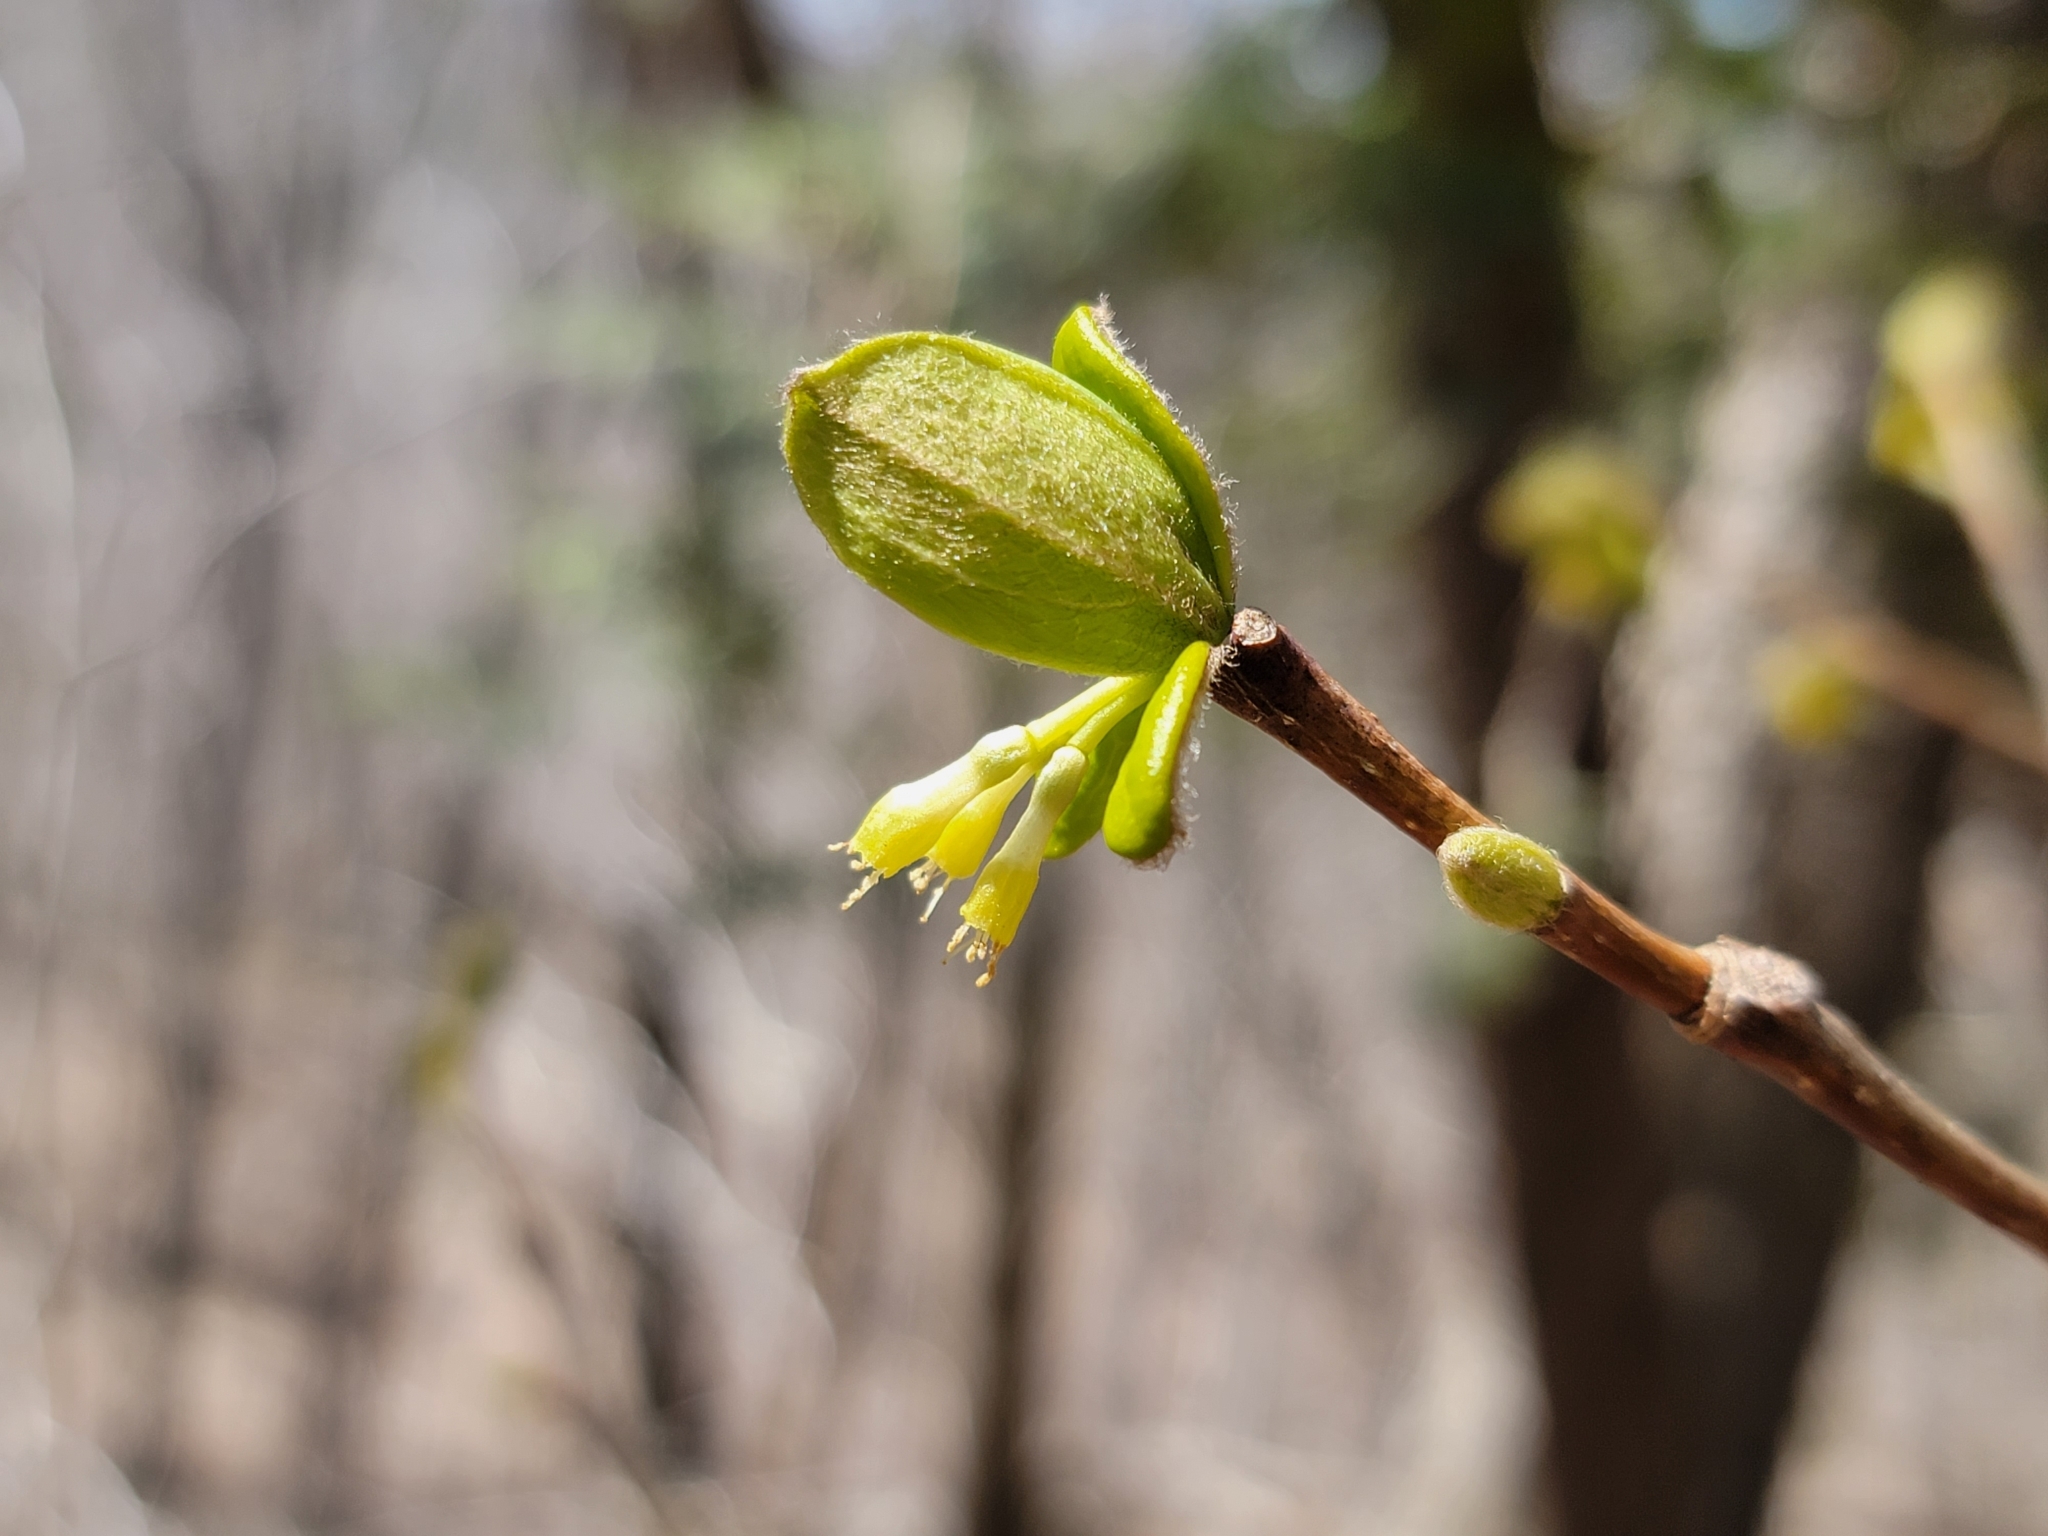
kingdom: Plantae
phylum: Tracheophyta
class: Magnoliopsida
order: Malvales
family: Thymelaeaceae
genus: Dirca
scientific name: Dirca palustris
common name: Leatherwood
